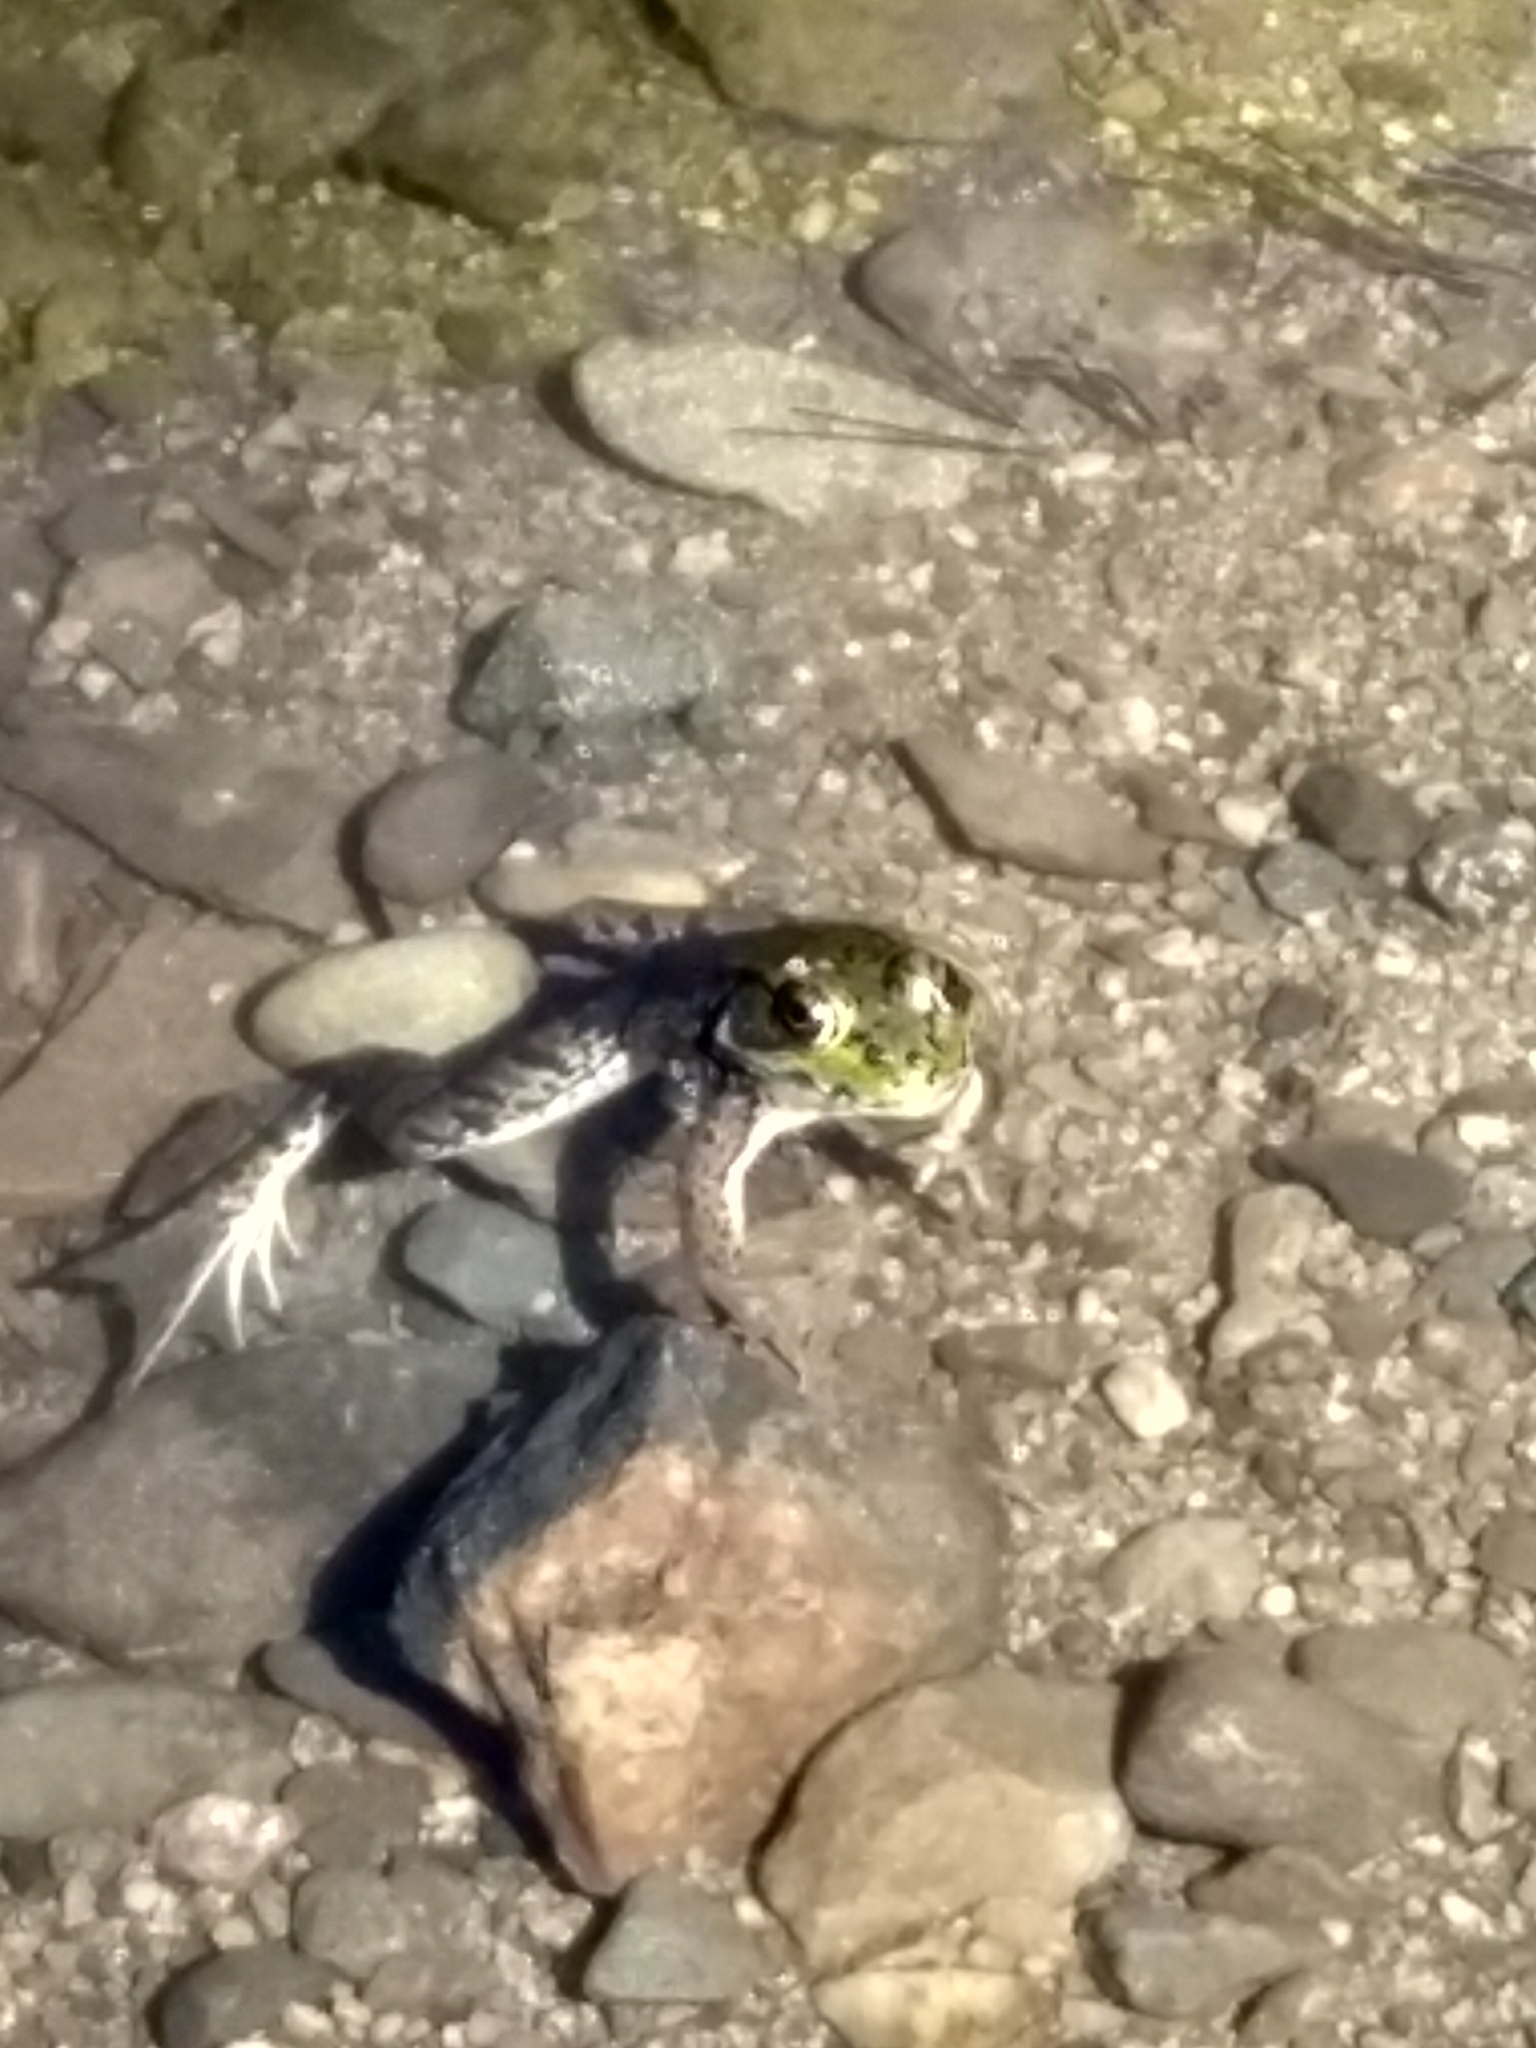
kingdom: Animalia
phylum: Chordata
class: Amphibia
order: Anura
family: Ranidae
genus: Lithobates
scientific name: Lithobates clamitans
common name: Green frog
